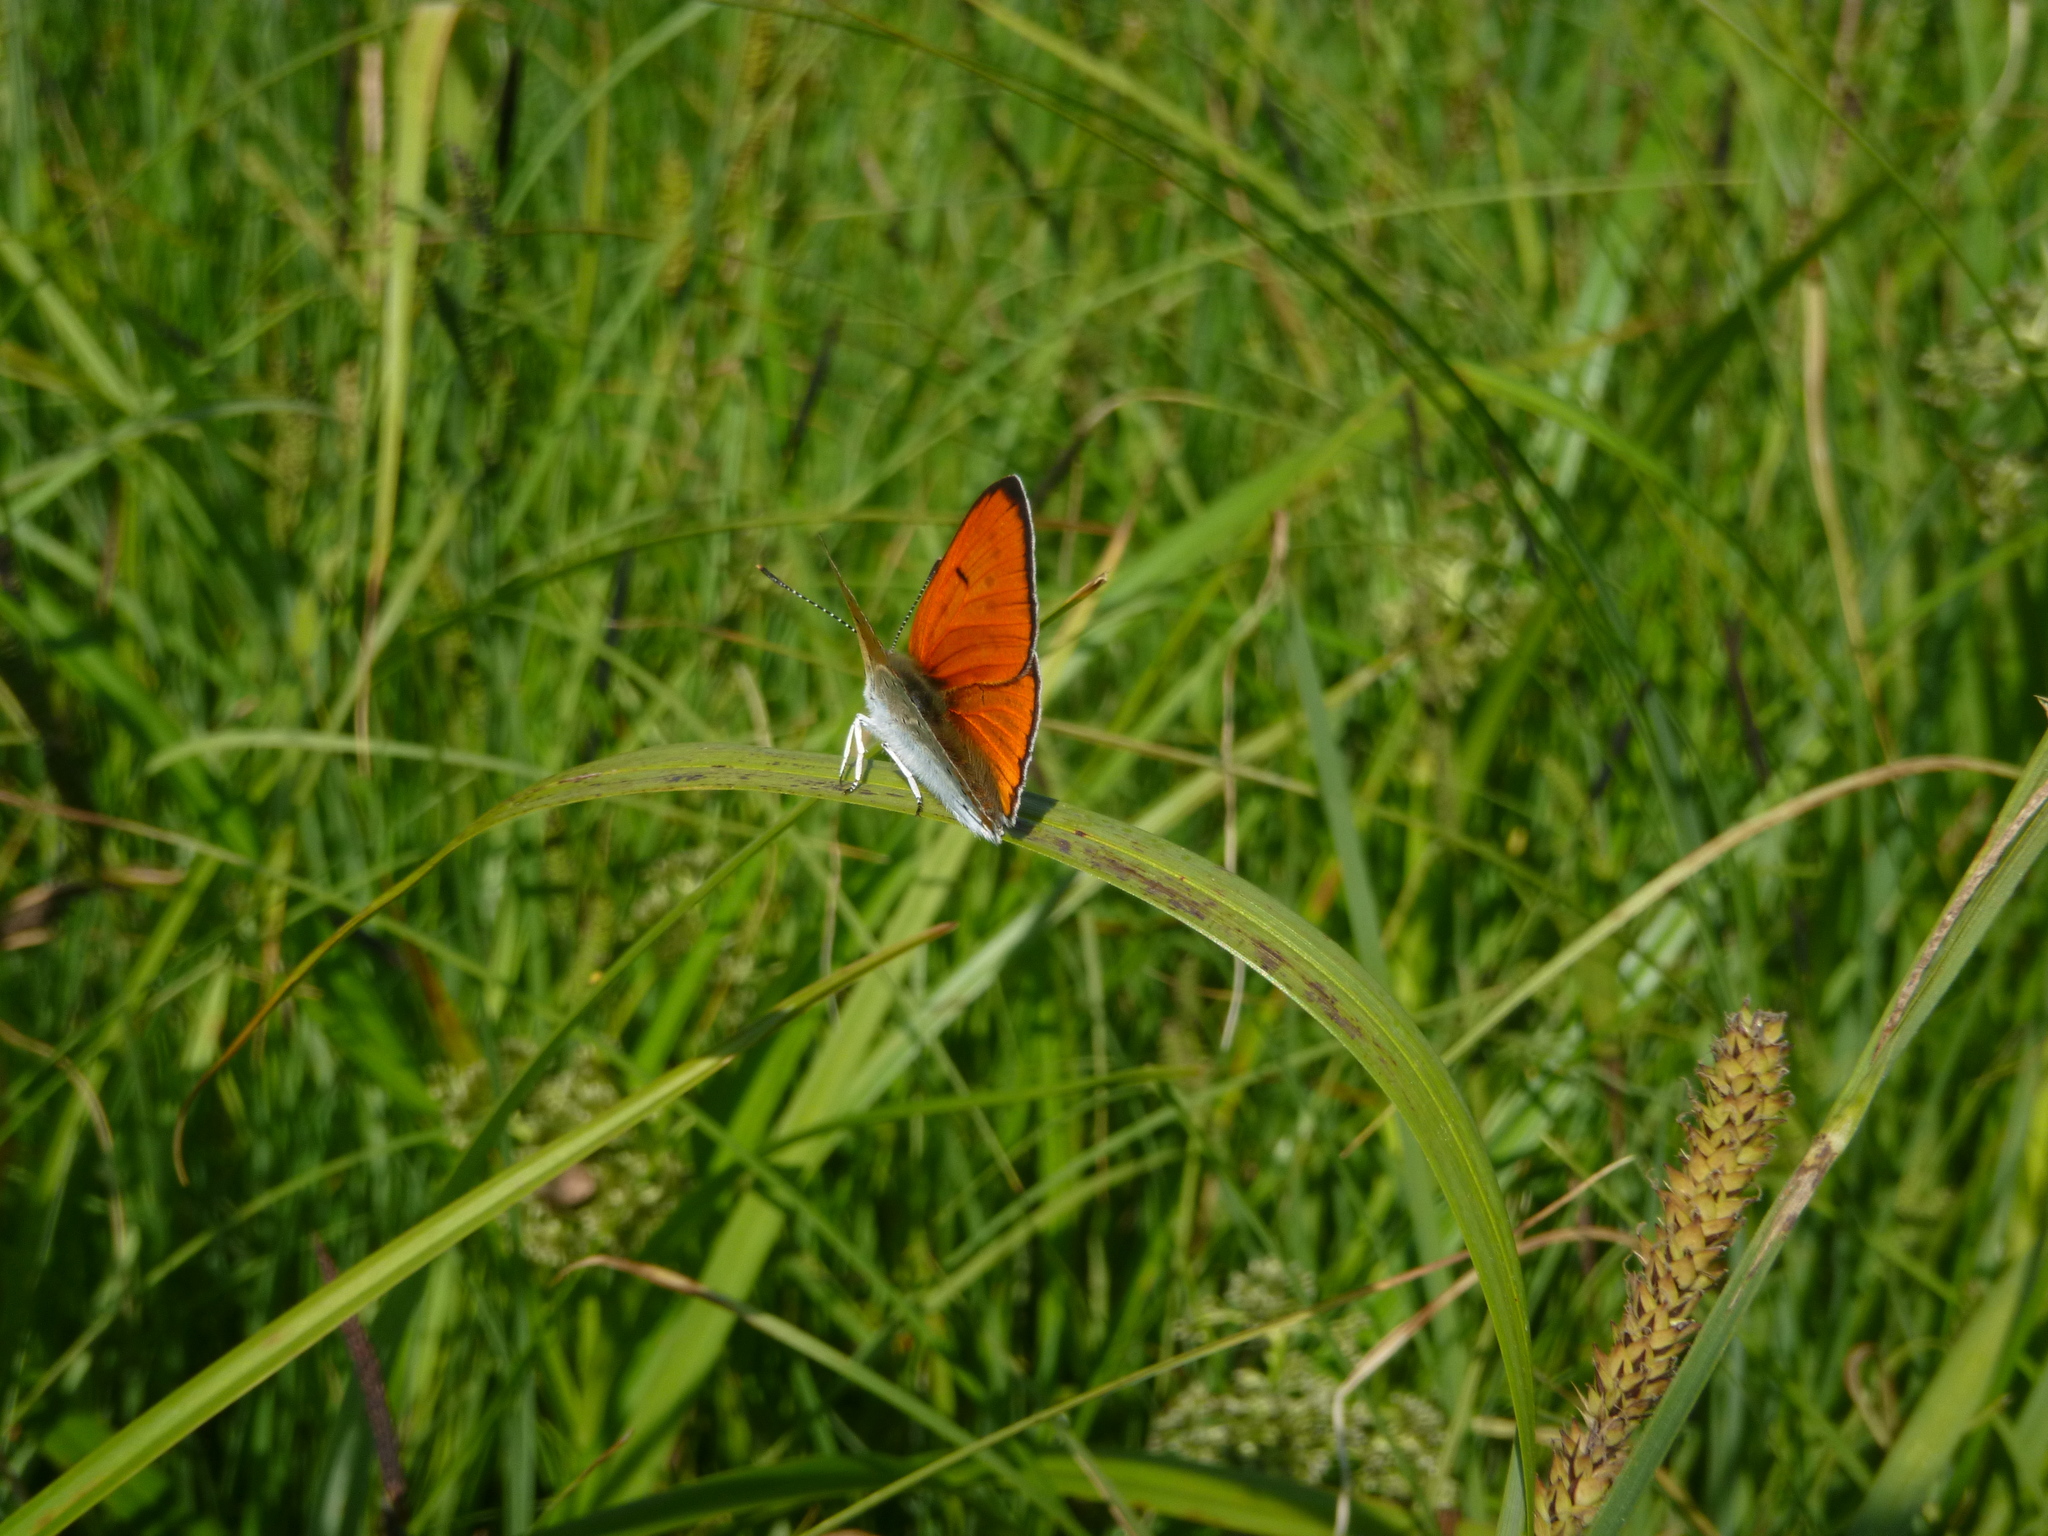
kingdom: Animalia
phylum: Arthropoda
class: Insecta
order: Lepidoptera
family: Lycaenidae
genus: Lycaena
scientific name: Lycaena dispar
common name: Large copper
